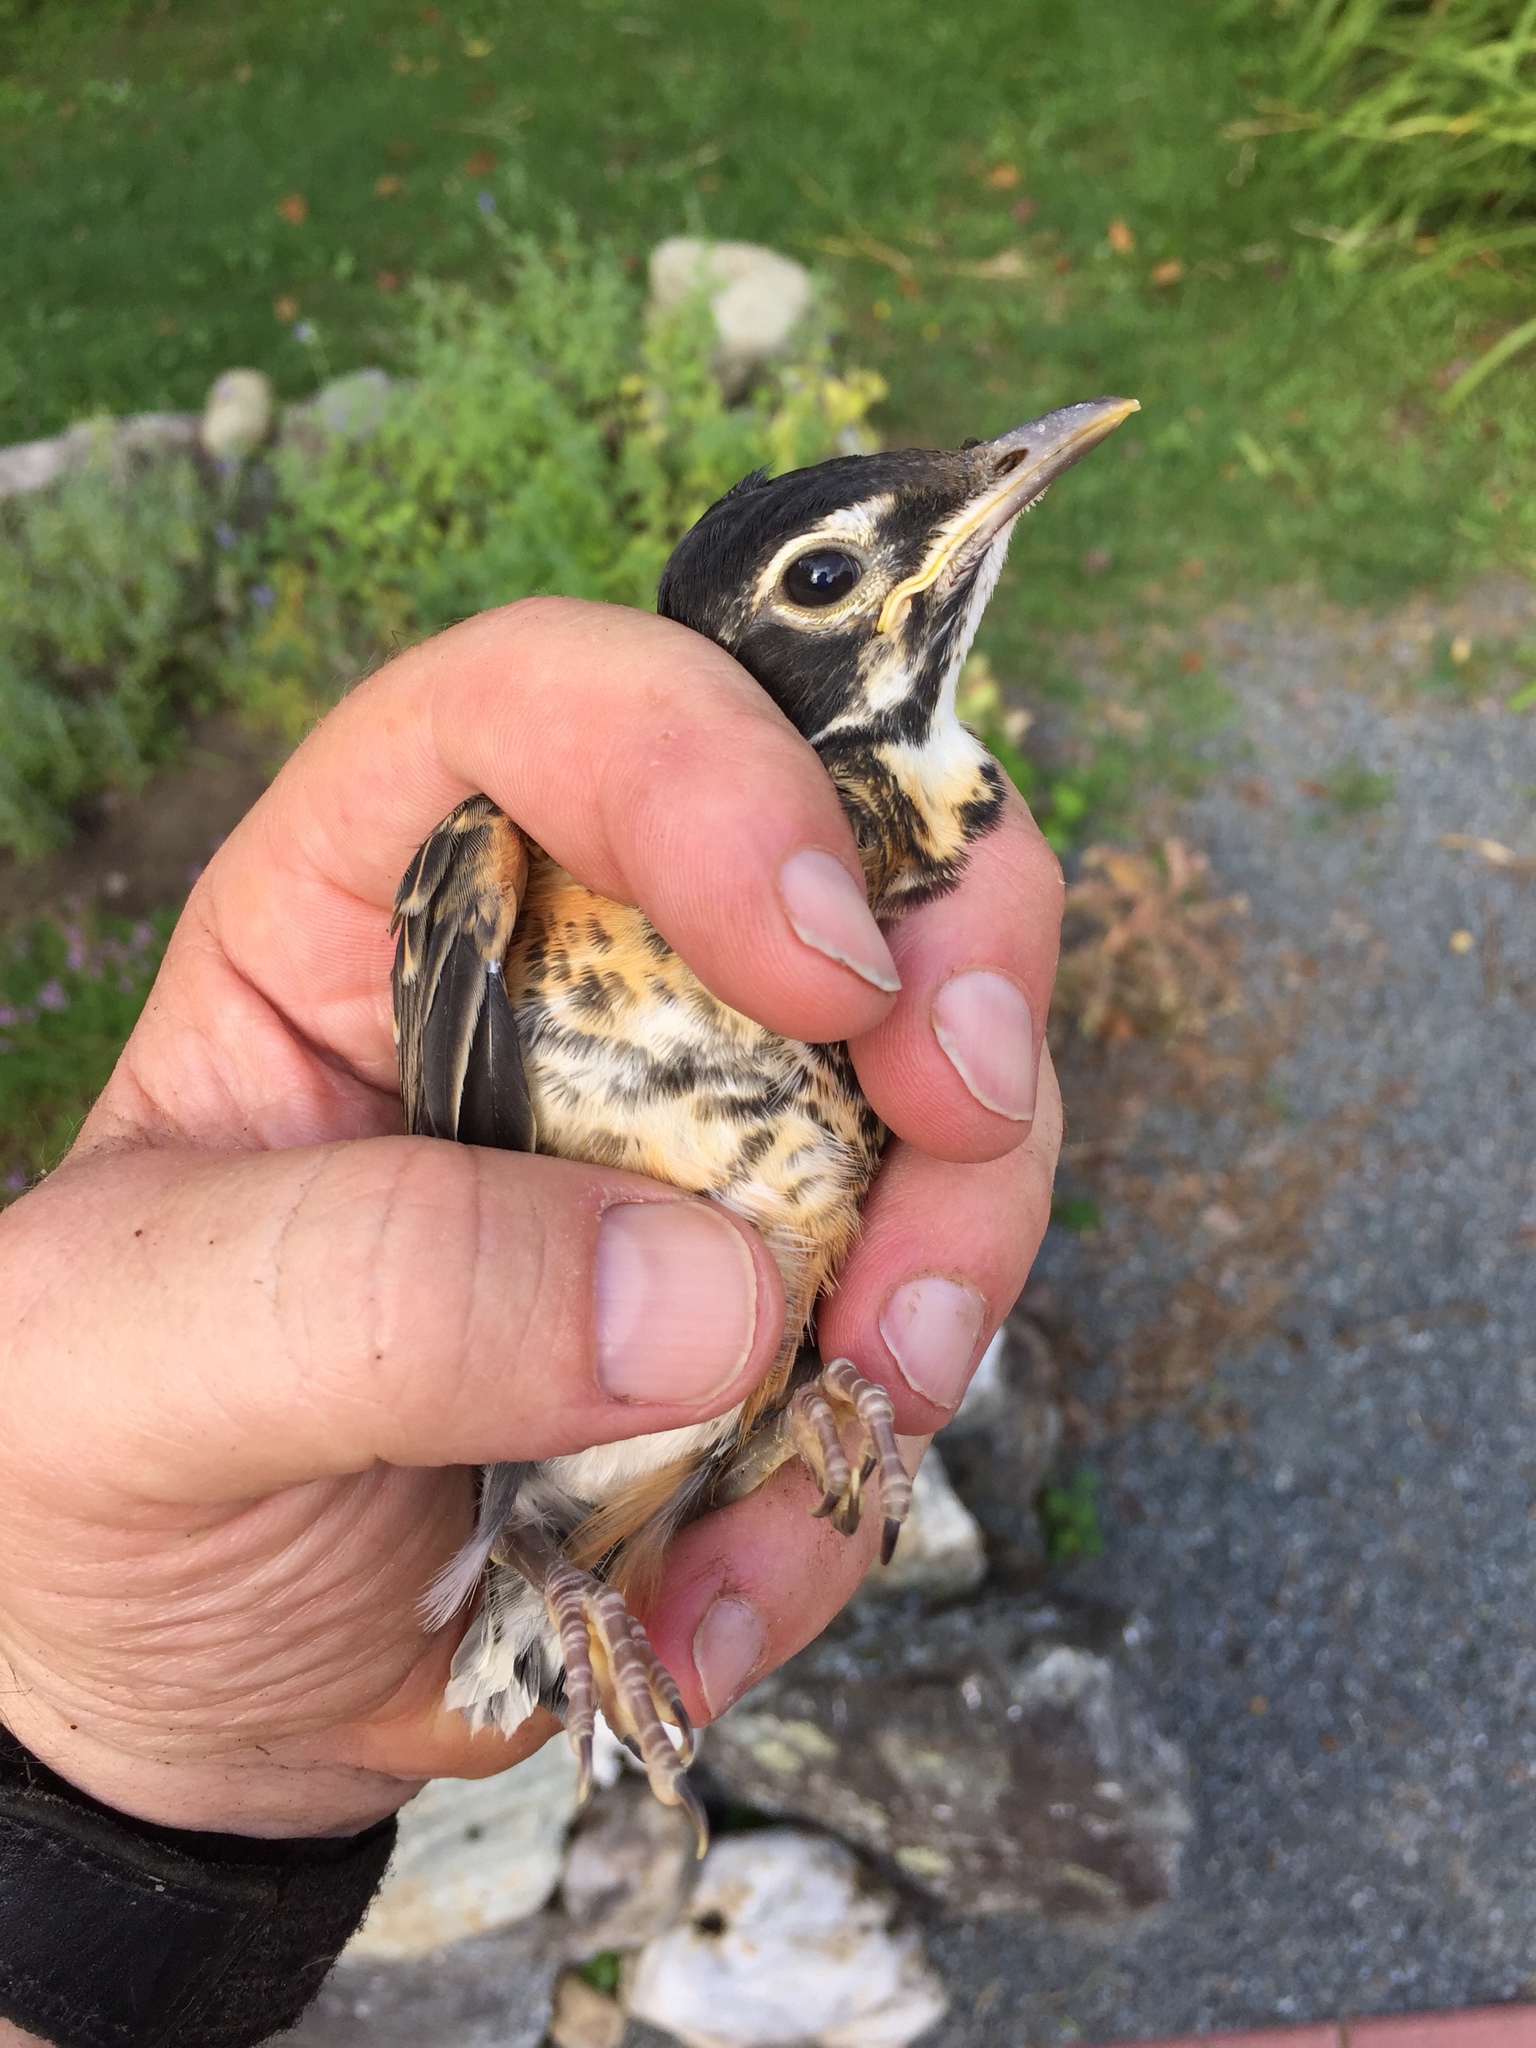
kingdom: Animalia
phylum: Chordata
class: Aves
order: Passeriformes
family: Turdidae
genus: Turdus
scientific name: Turdus migratorius
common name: American robin
